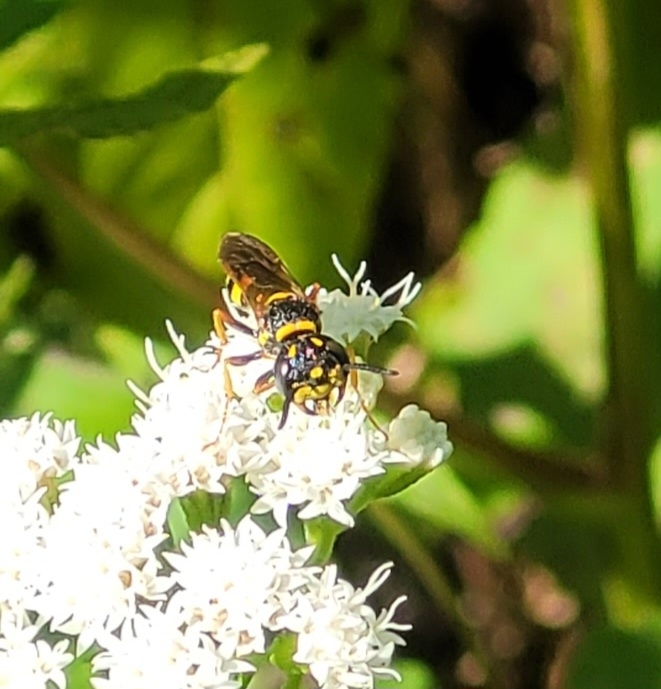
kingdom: Animalia
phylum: Arthropoda
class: Insecta
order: Hymenoptera
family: Crabronidae
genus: Philanthus
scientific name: Philanthus gibbosus
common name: Humped beewolf
